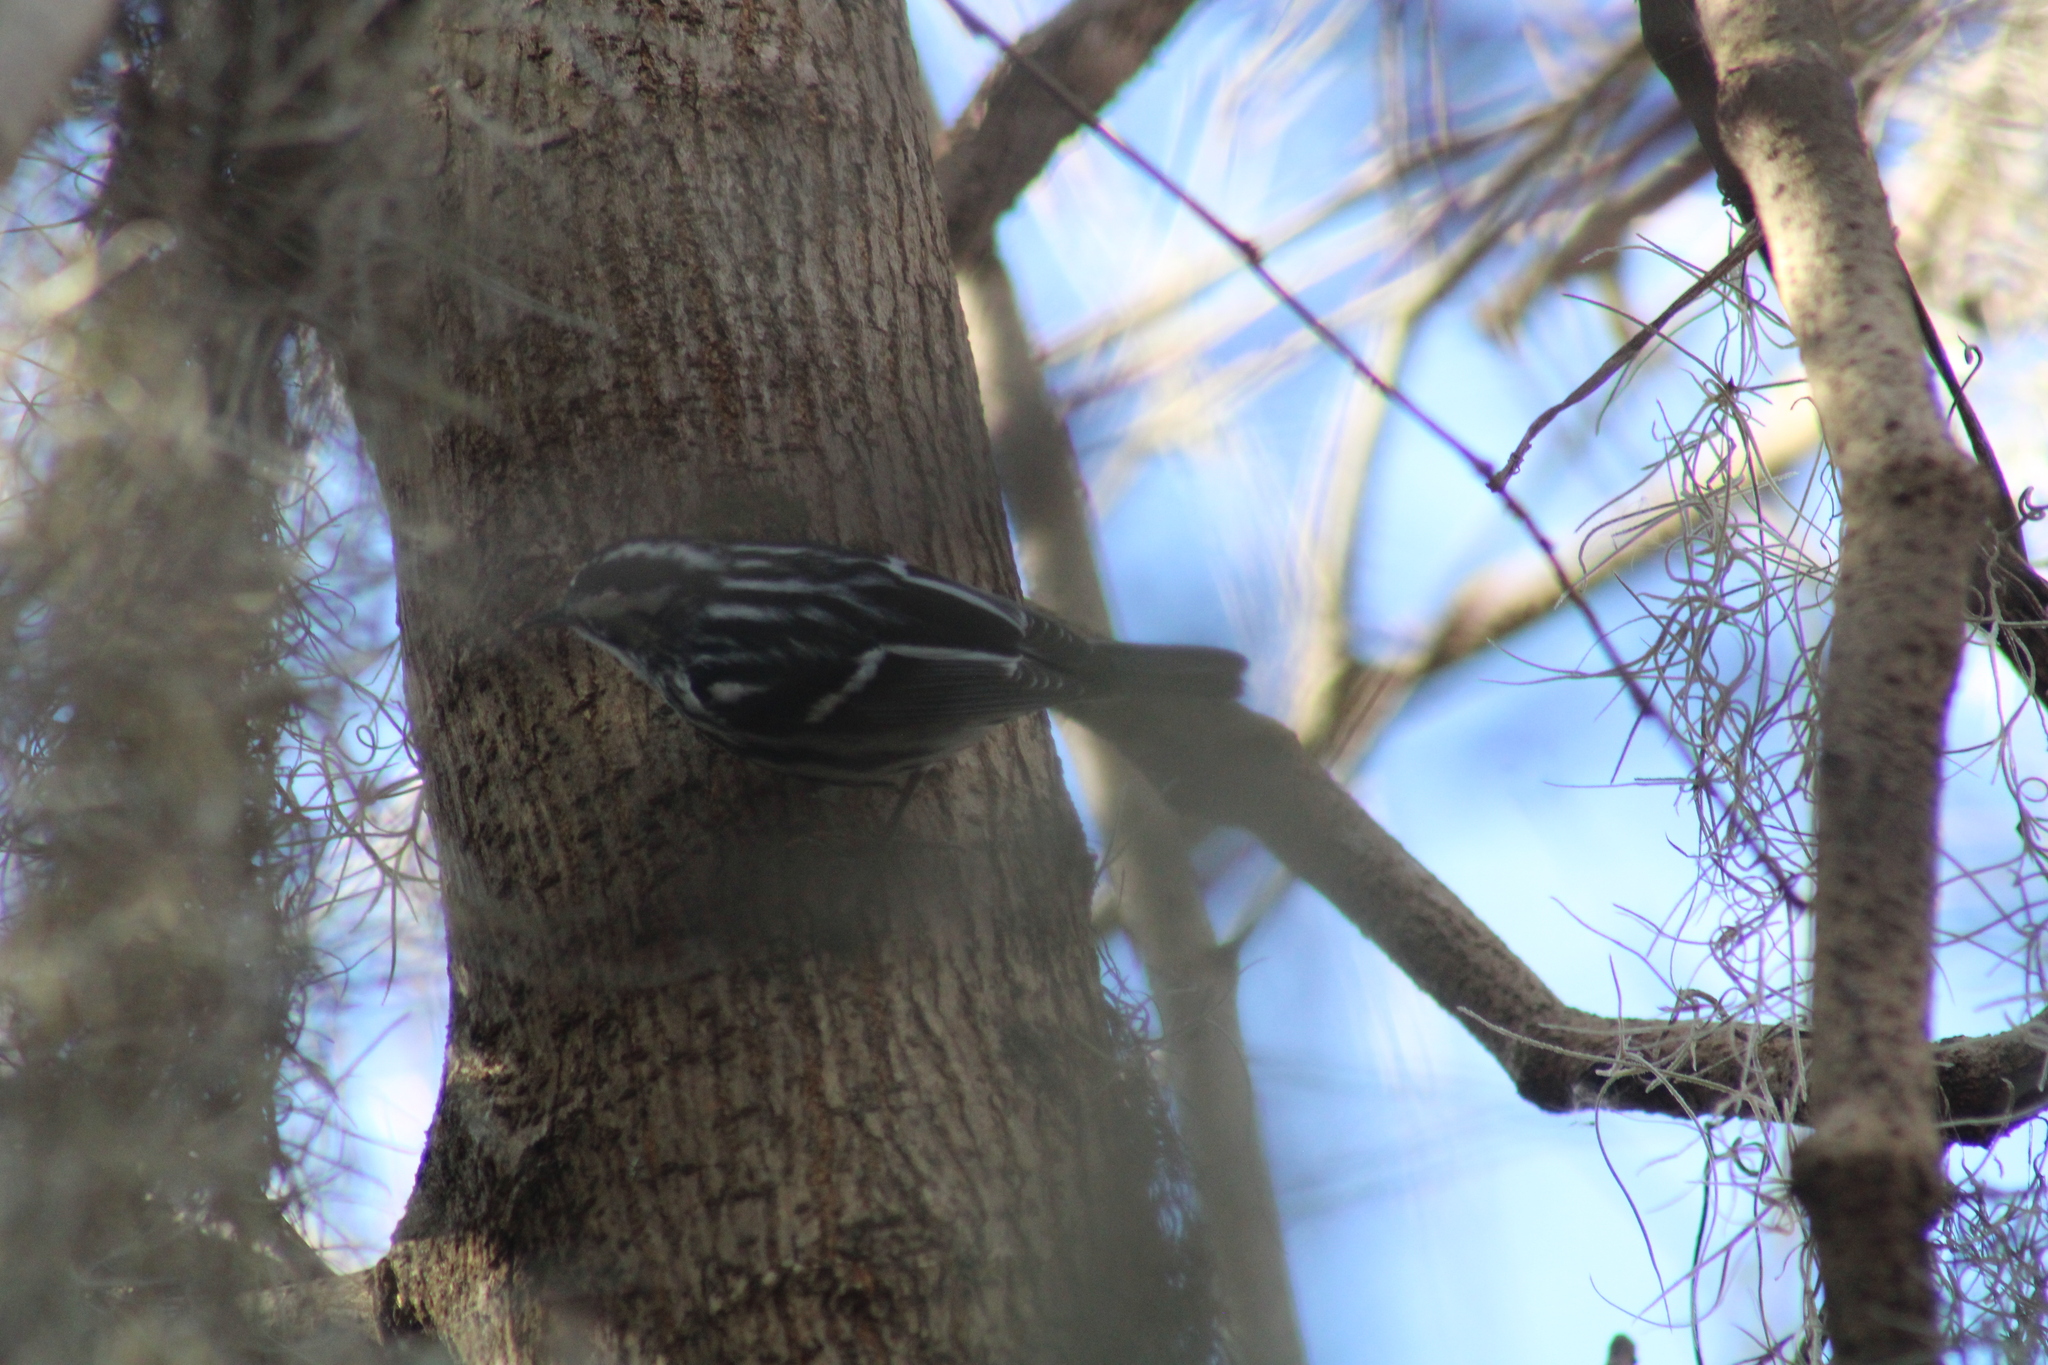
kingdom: Animalia
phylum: Chordata
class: Aves
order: Passeriformes
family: Parulidae
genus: Mniotilta
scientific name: Mniotilta varia
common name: Black-and-white warbler
